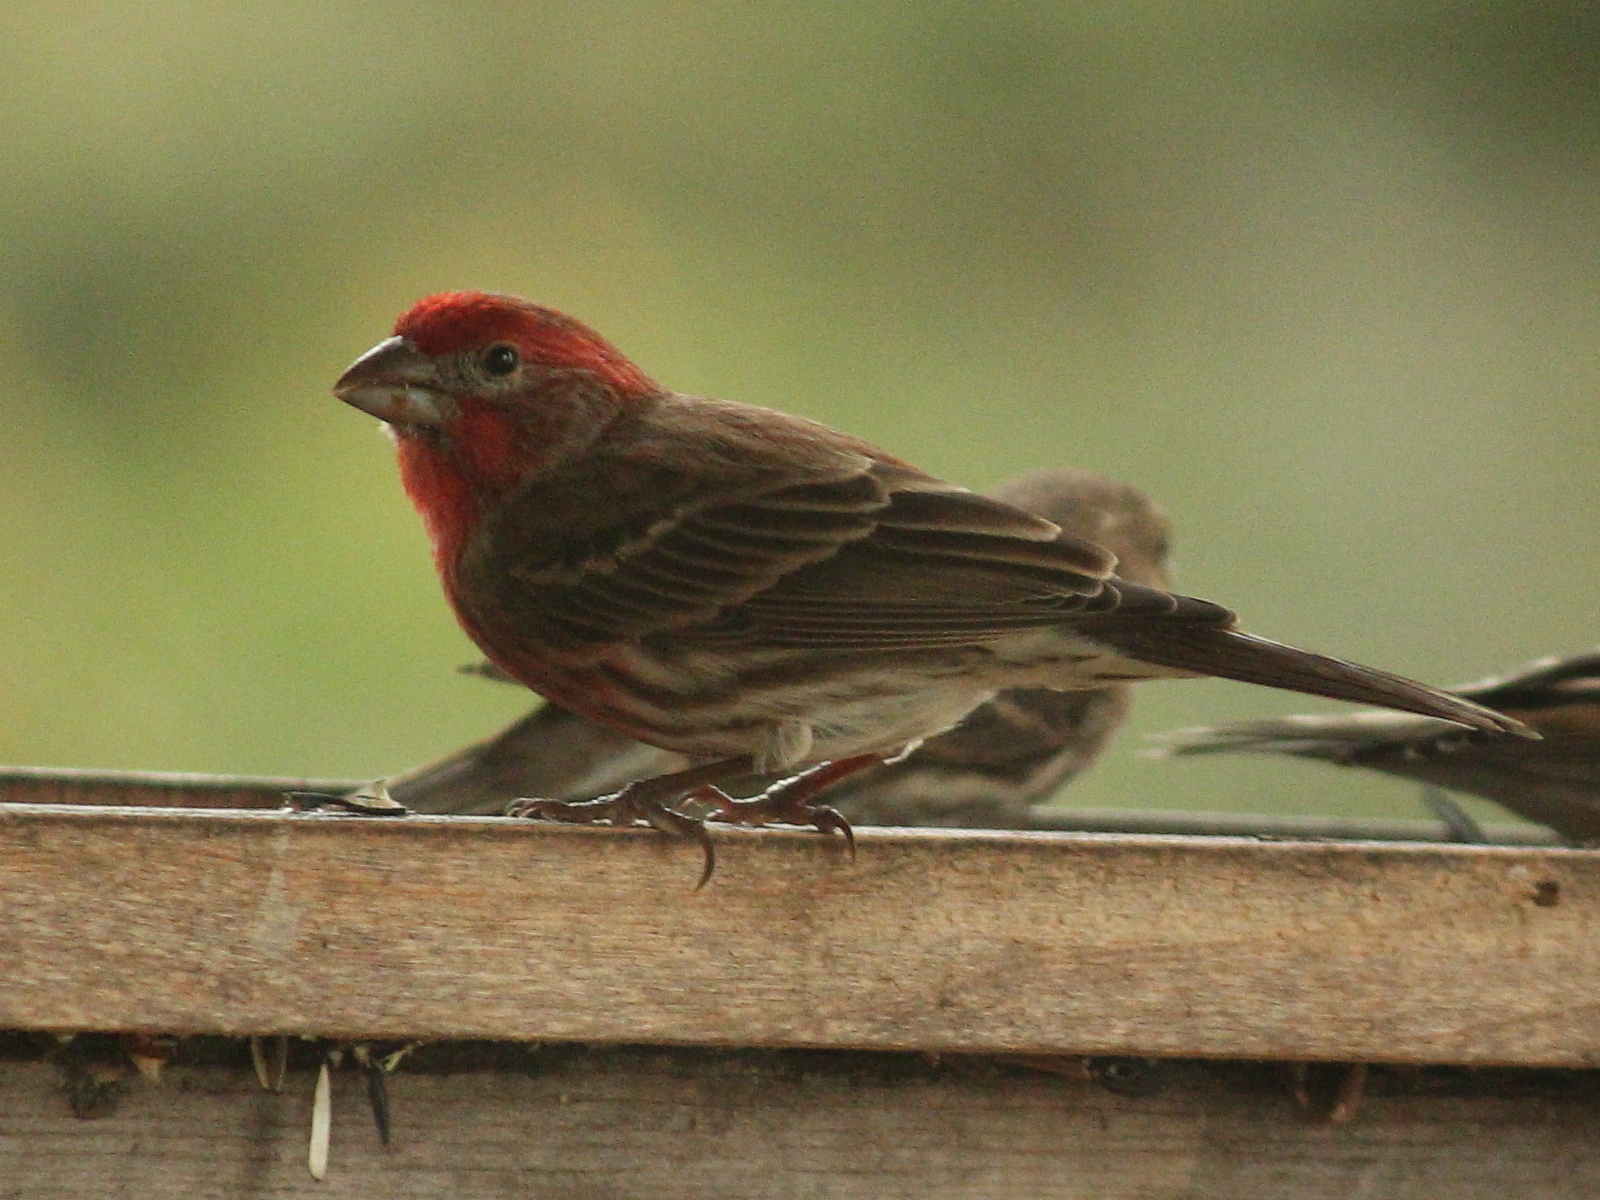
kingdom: Animalia
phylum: Chordata
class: Aves
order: Passeriformes
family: Fringillidae
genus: Haemorhous
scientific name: Haemorhous mexicanus
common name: House finch
